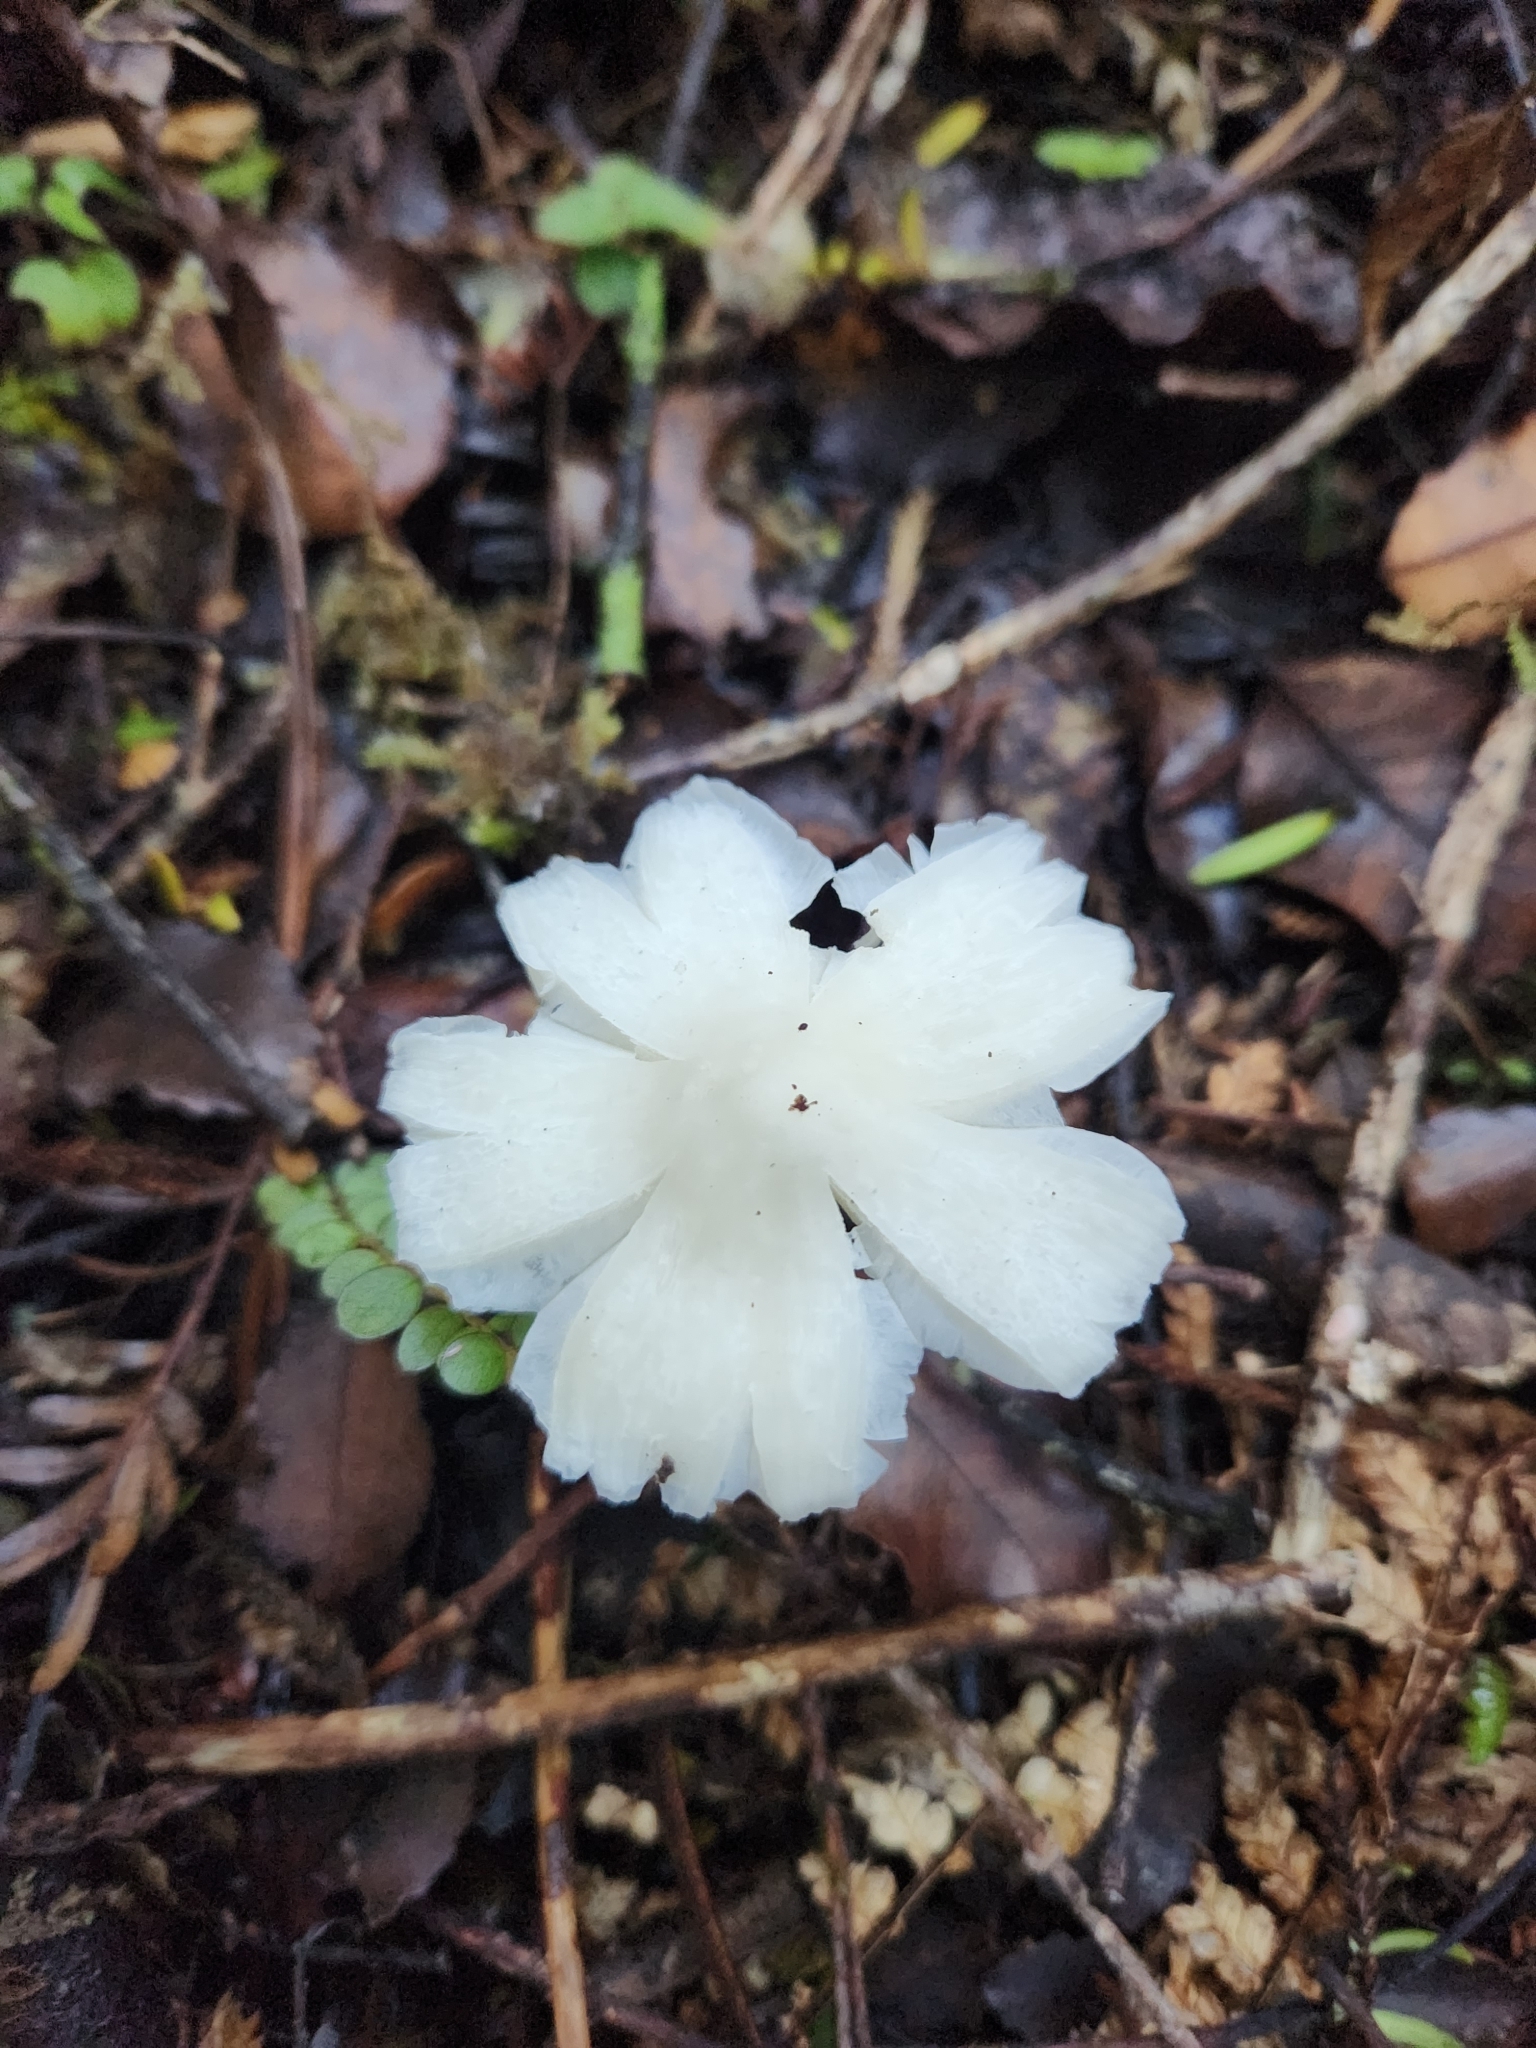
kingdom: Fungi
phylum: Basidiomycota
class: Agaricomycetes
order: Agaricales
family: Hygrophoraceae
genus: Humidicutis
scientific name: Humidicutis mavis
